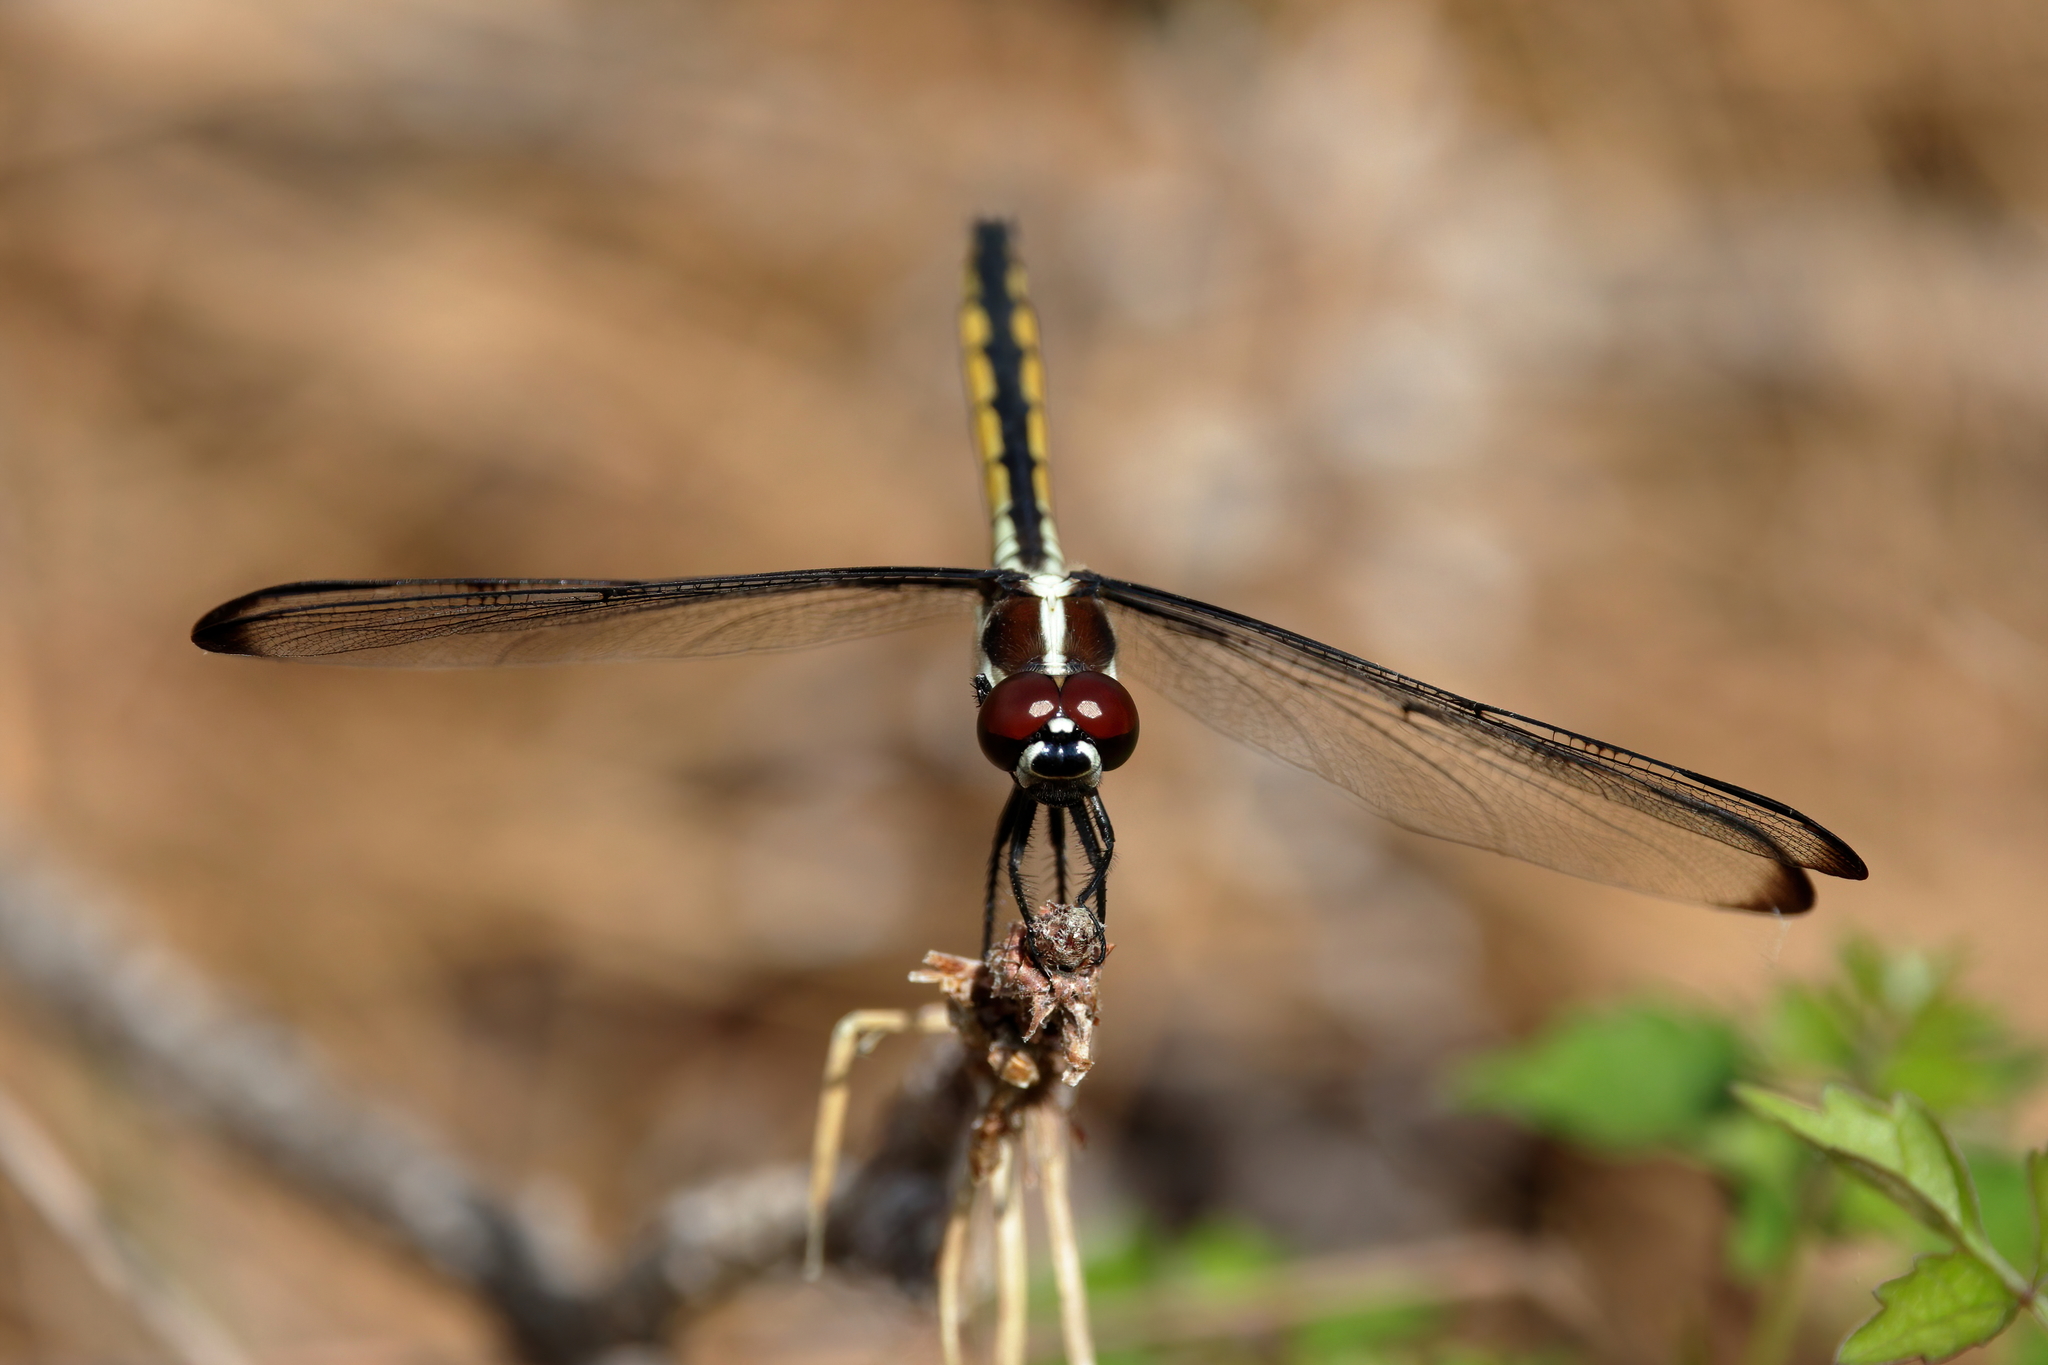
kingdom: Animalia
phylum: Arthropoda
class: Insecta
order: Odonata
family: Libellulidae
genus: Libellula
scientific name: Libellula axilena
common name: Bar-winged skimmer
